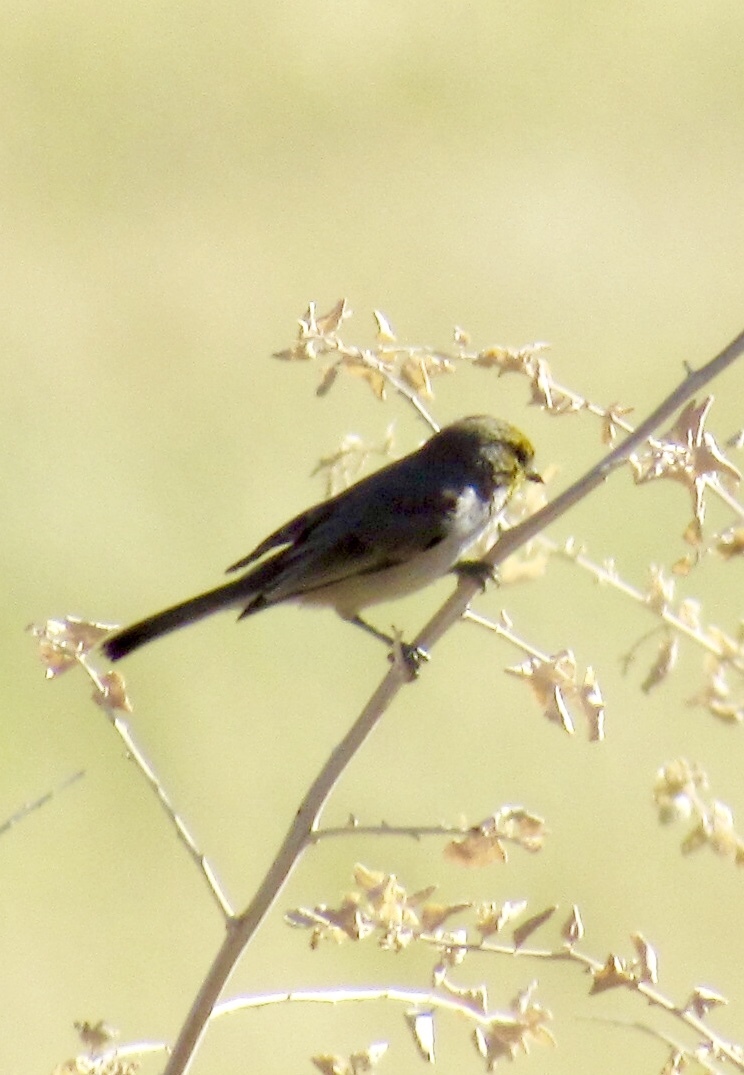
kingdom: Animalia
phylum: Chordata
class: Aves
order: Passeriformes
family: Remizidae
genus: Auriparus
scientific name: Auriparus flaviceps
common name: Verdin
